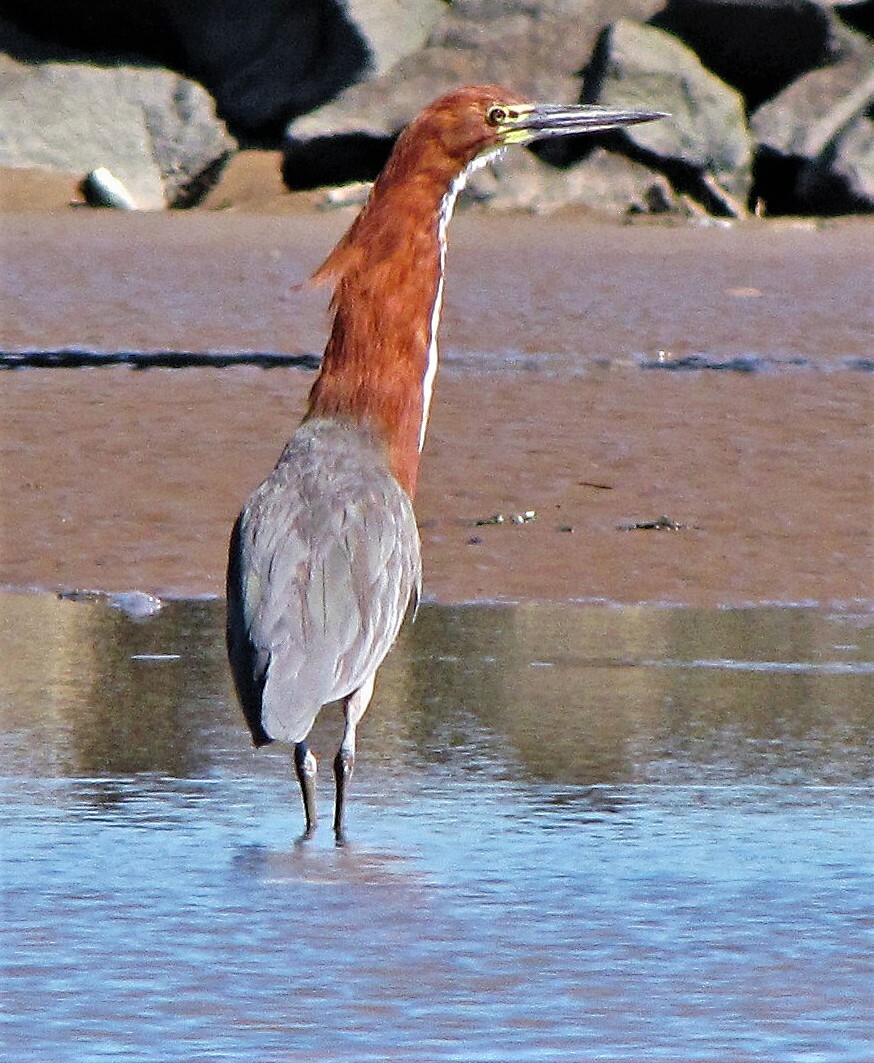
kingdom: Animalia
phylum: Chordata
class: Aves
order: Pelecaniformes
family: Ardeidae
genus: Tigrisoma
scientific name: Tigrisoma lineatum
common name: Rufescent tiger-heron
